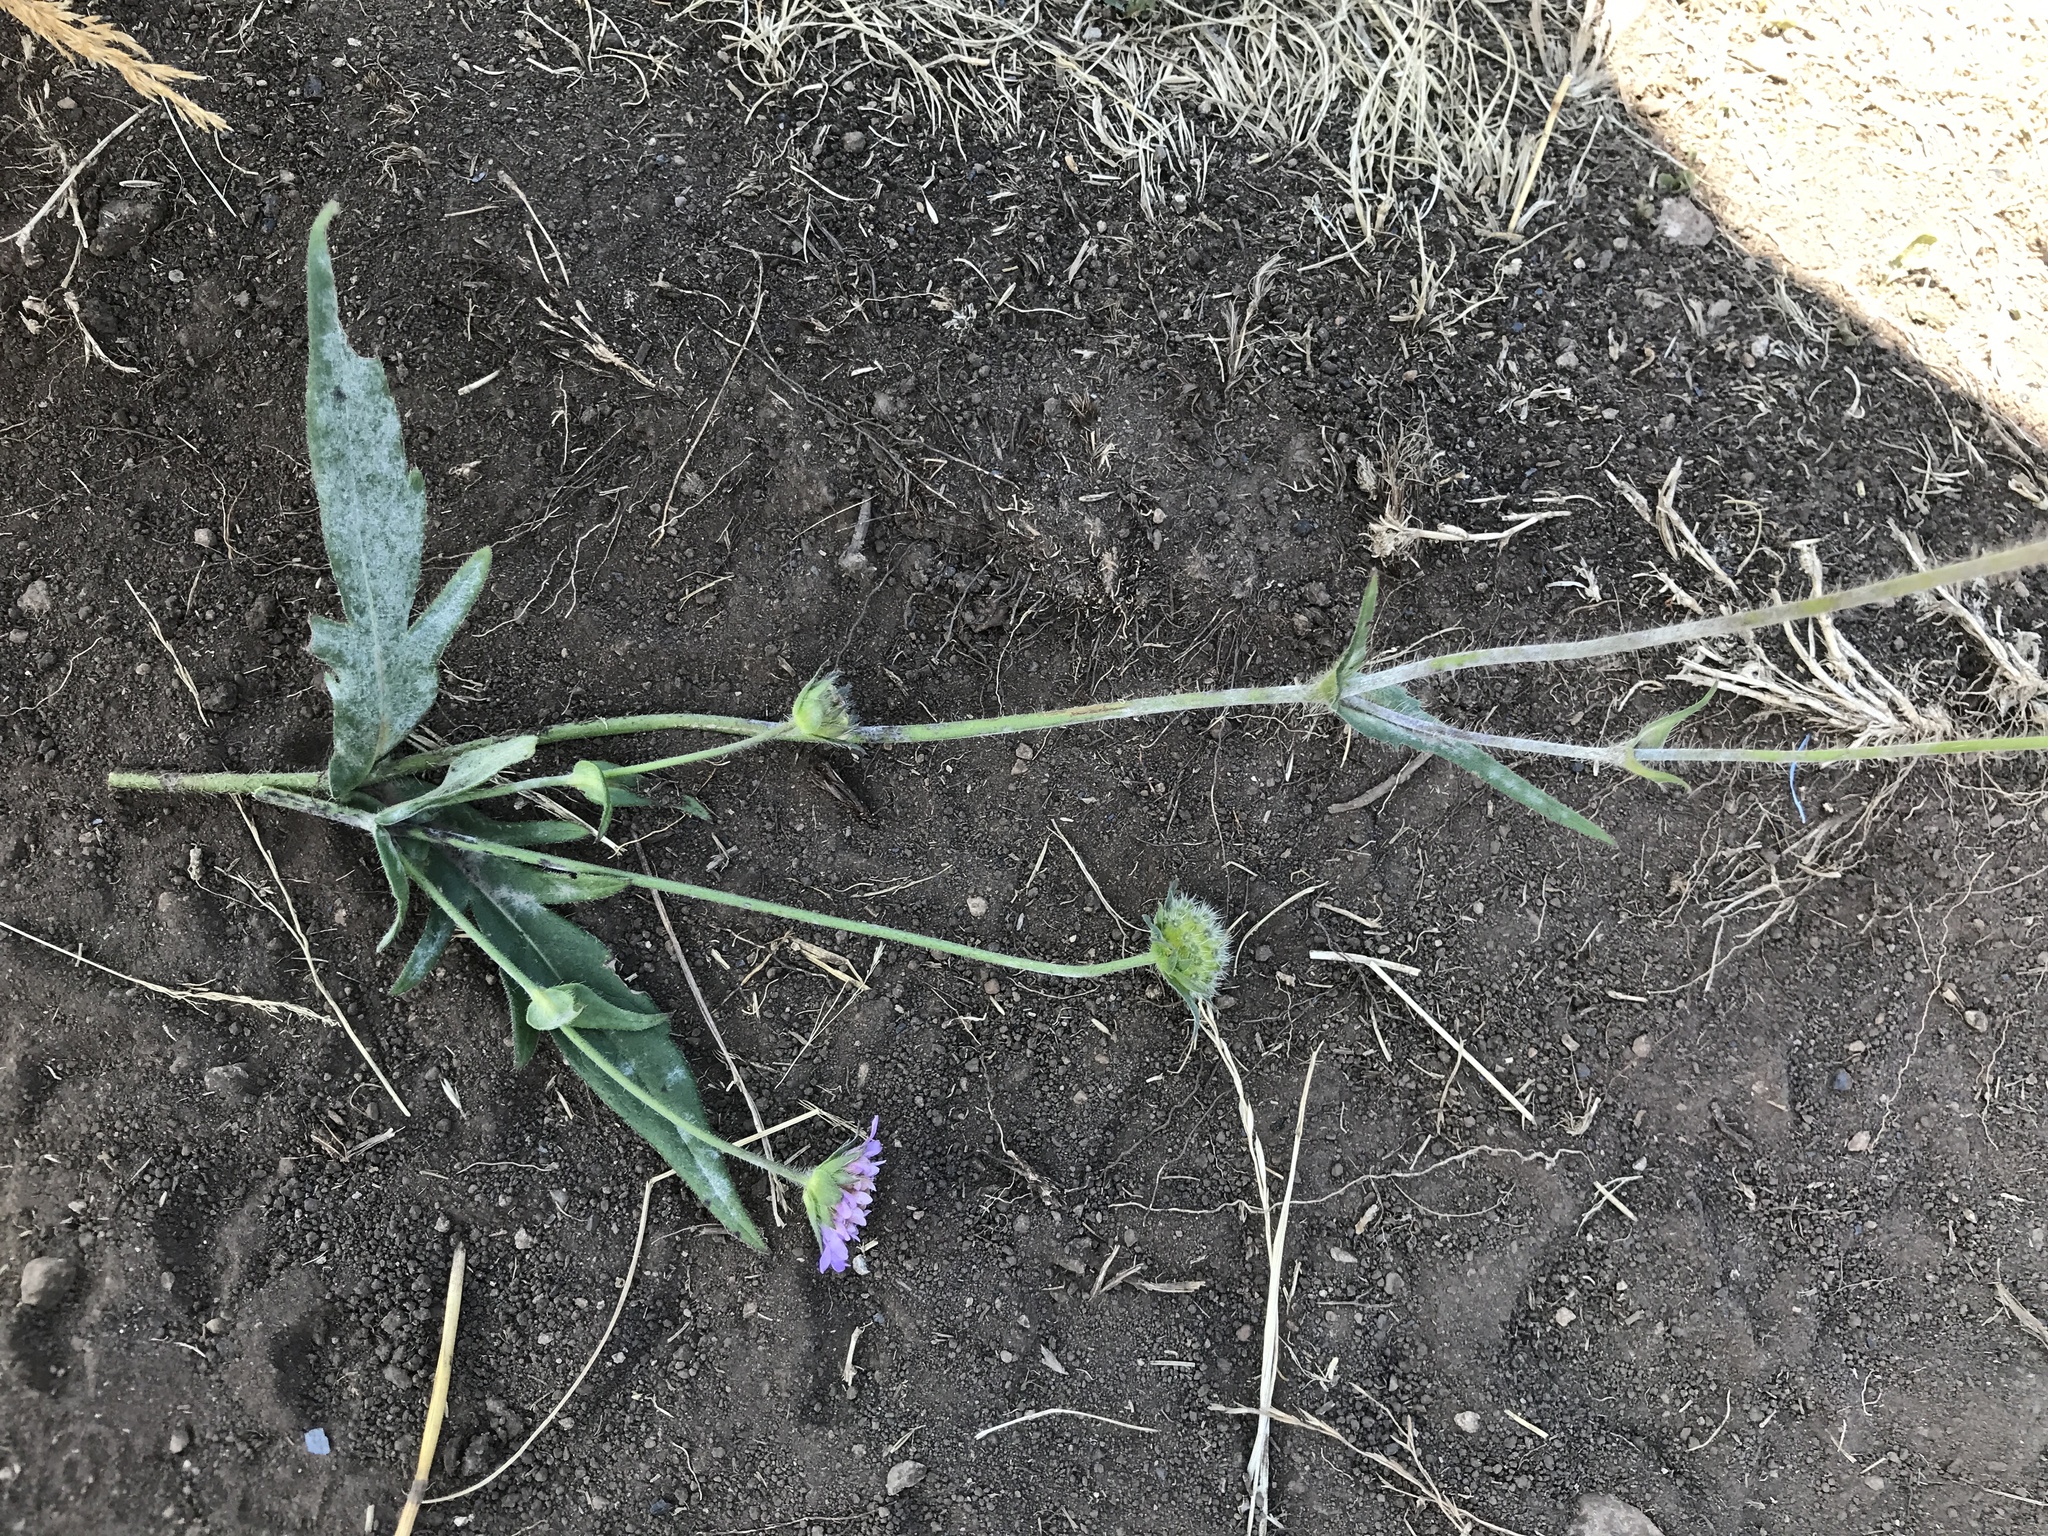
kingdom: Plantae
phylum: Tracheophyta
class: Magnoliopsida
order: Dipsacales
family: Caprifoliaceae
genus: Knautia
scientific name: Knautia arvensis
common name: Field scabiosa
